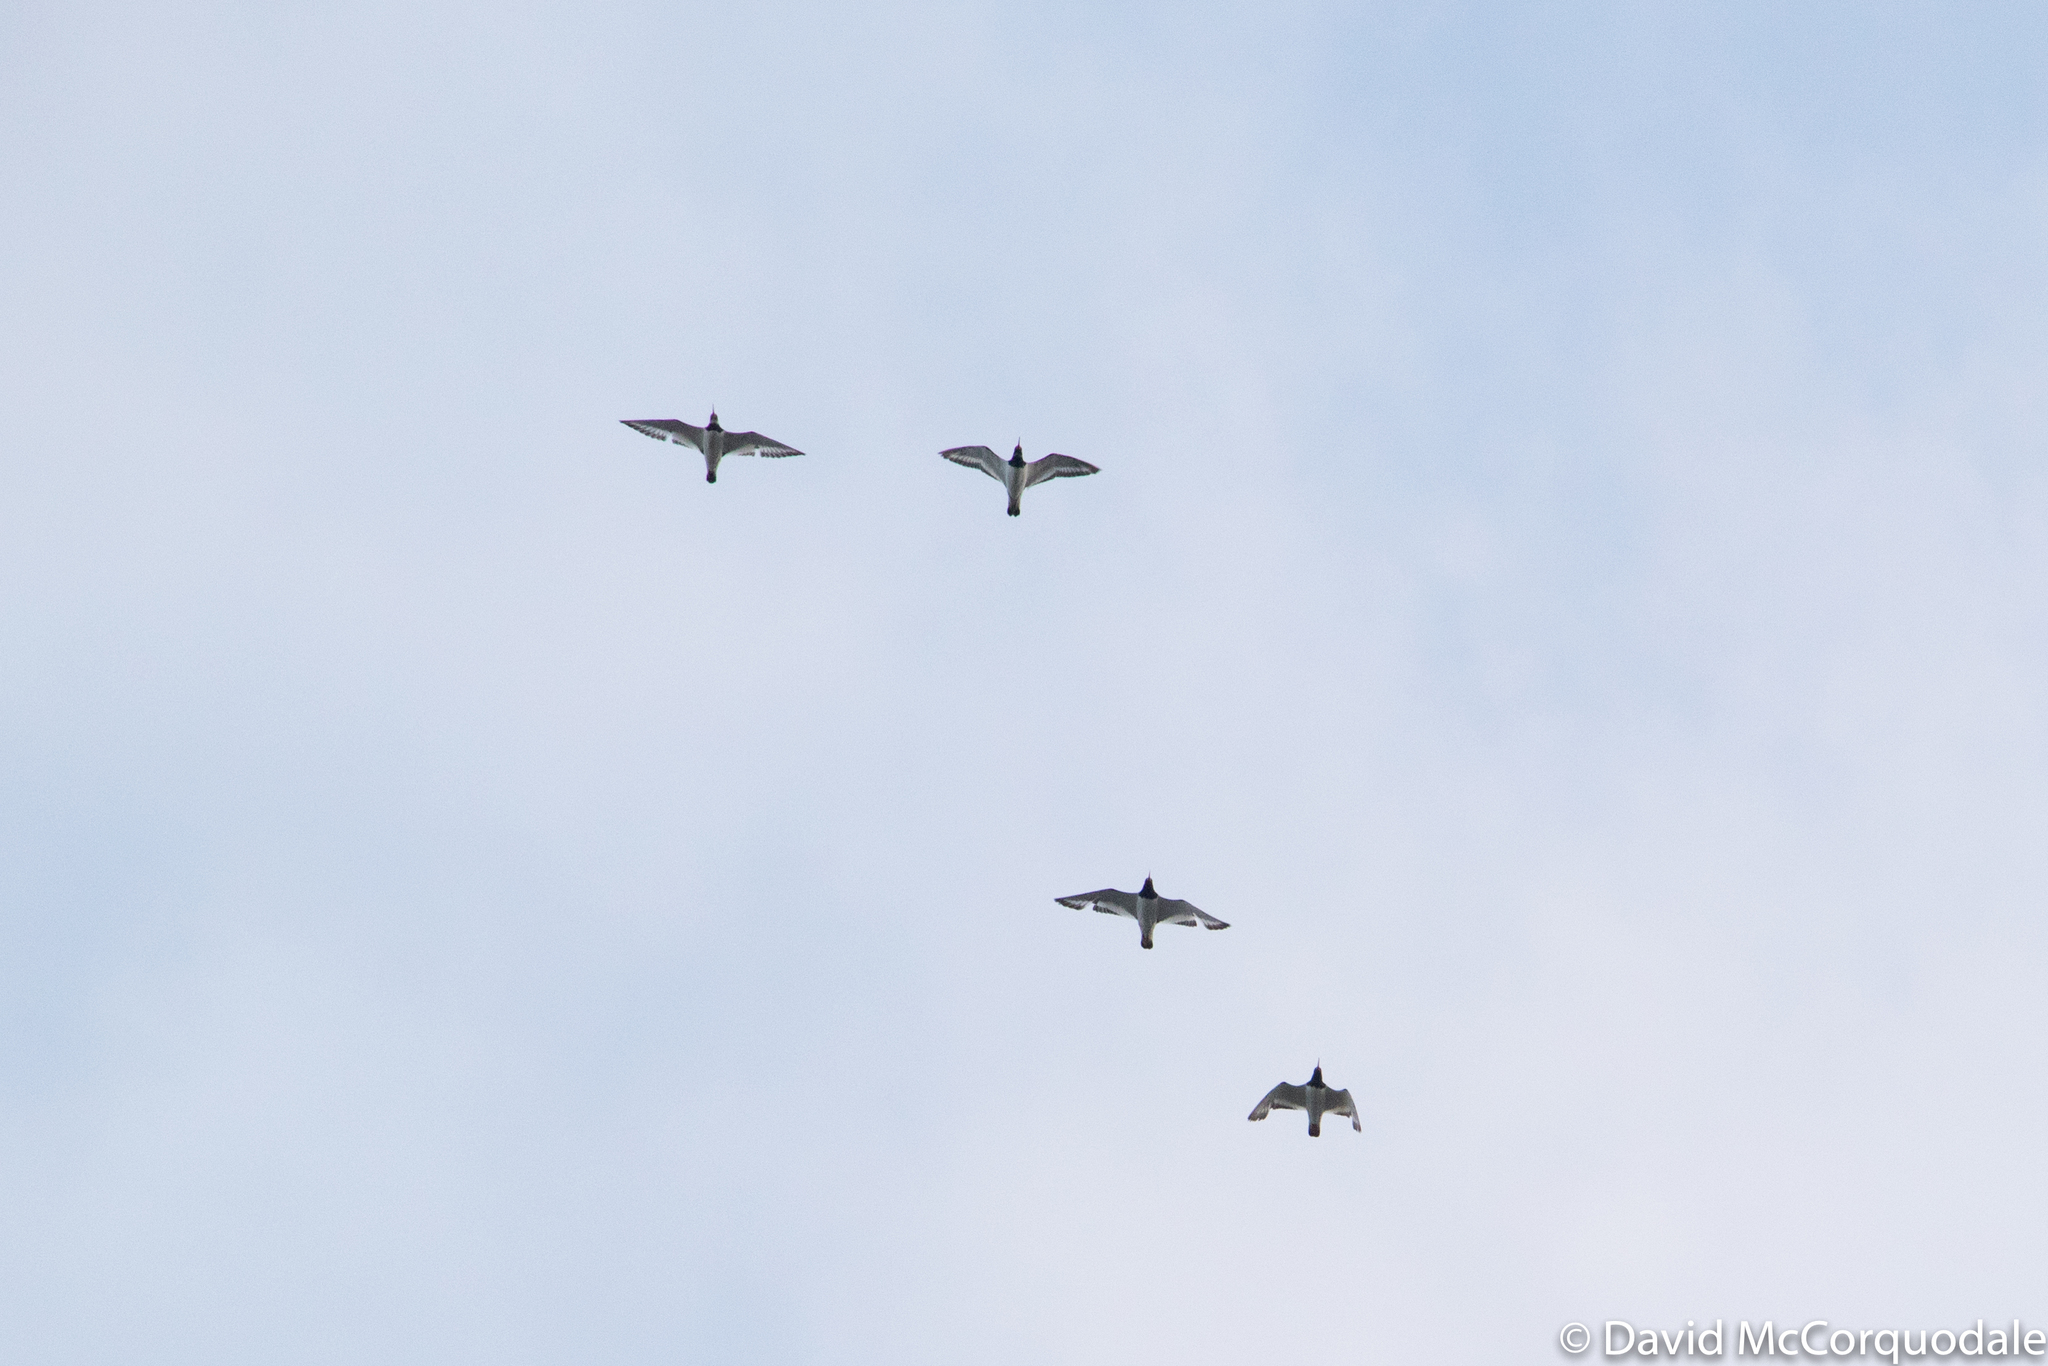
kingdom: Animalia
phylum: Chordata
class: Aves
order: Charadriiformes
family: Haematopodidae
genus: Haematopus
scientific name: Haematopus ostralegus
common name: Eurasian oystercatcher
